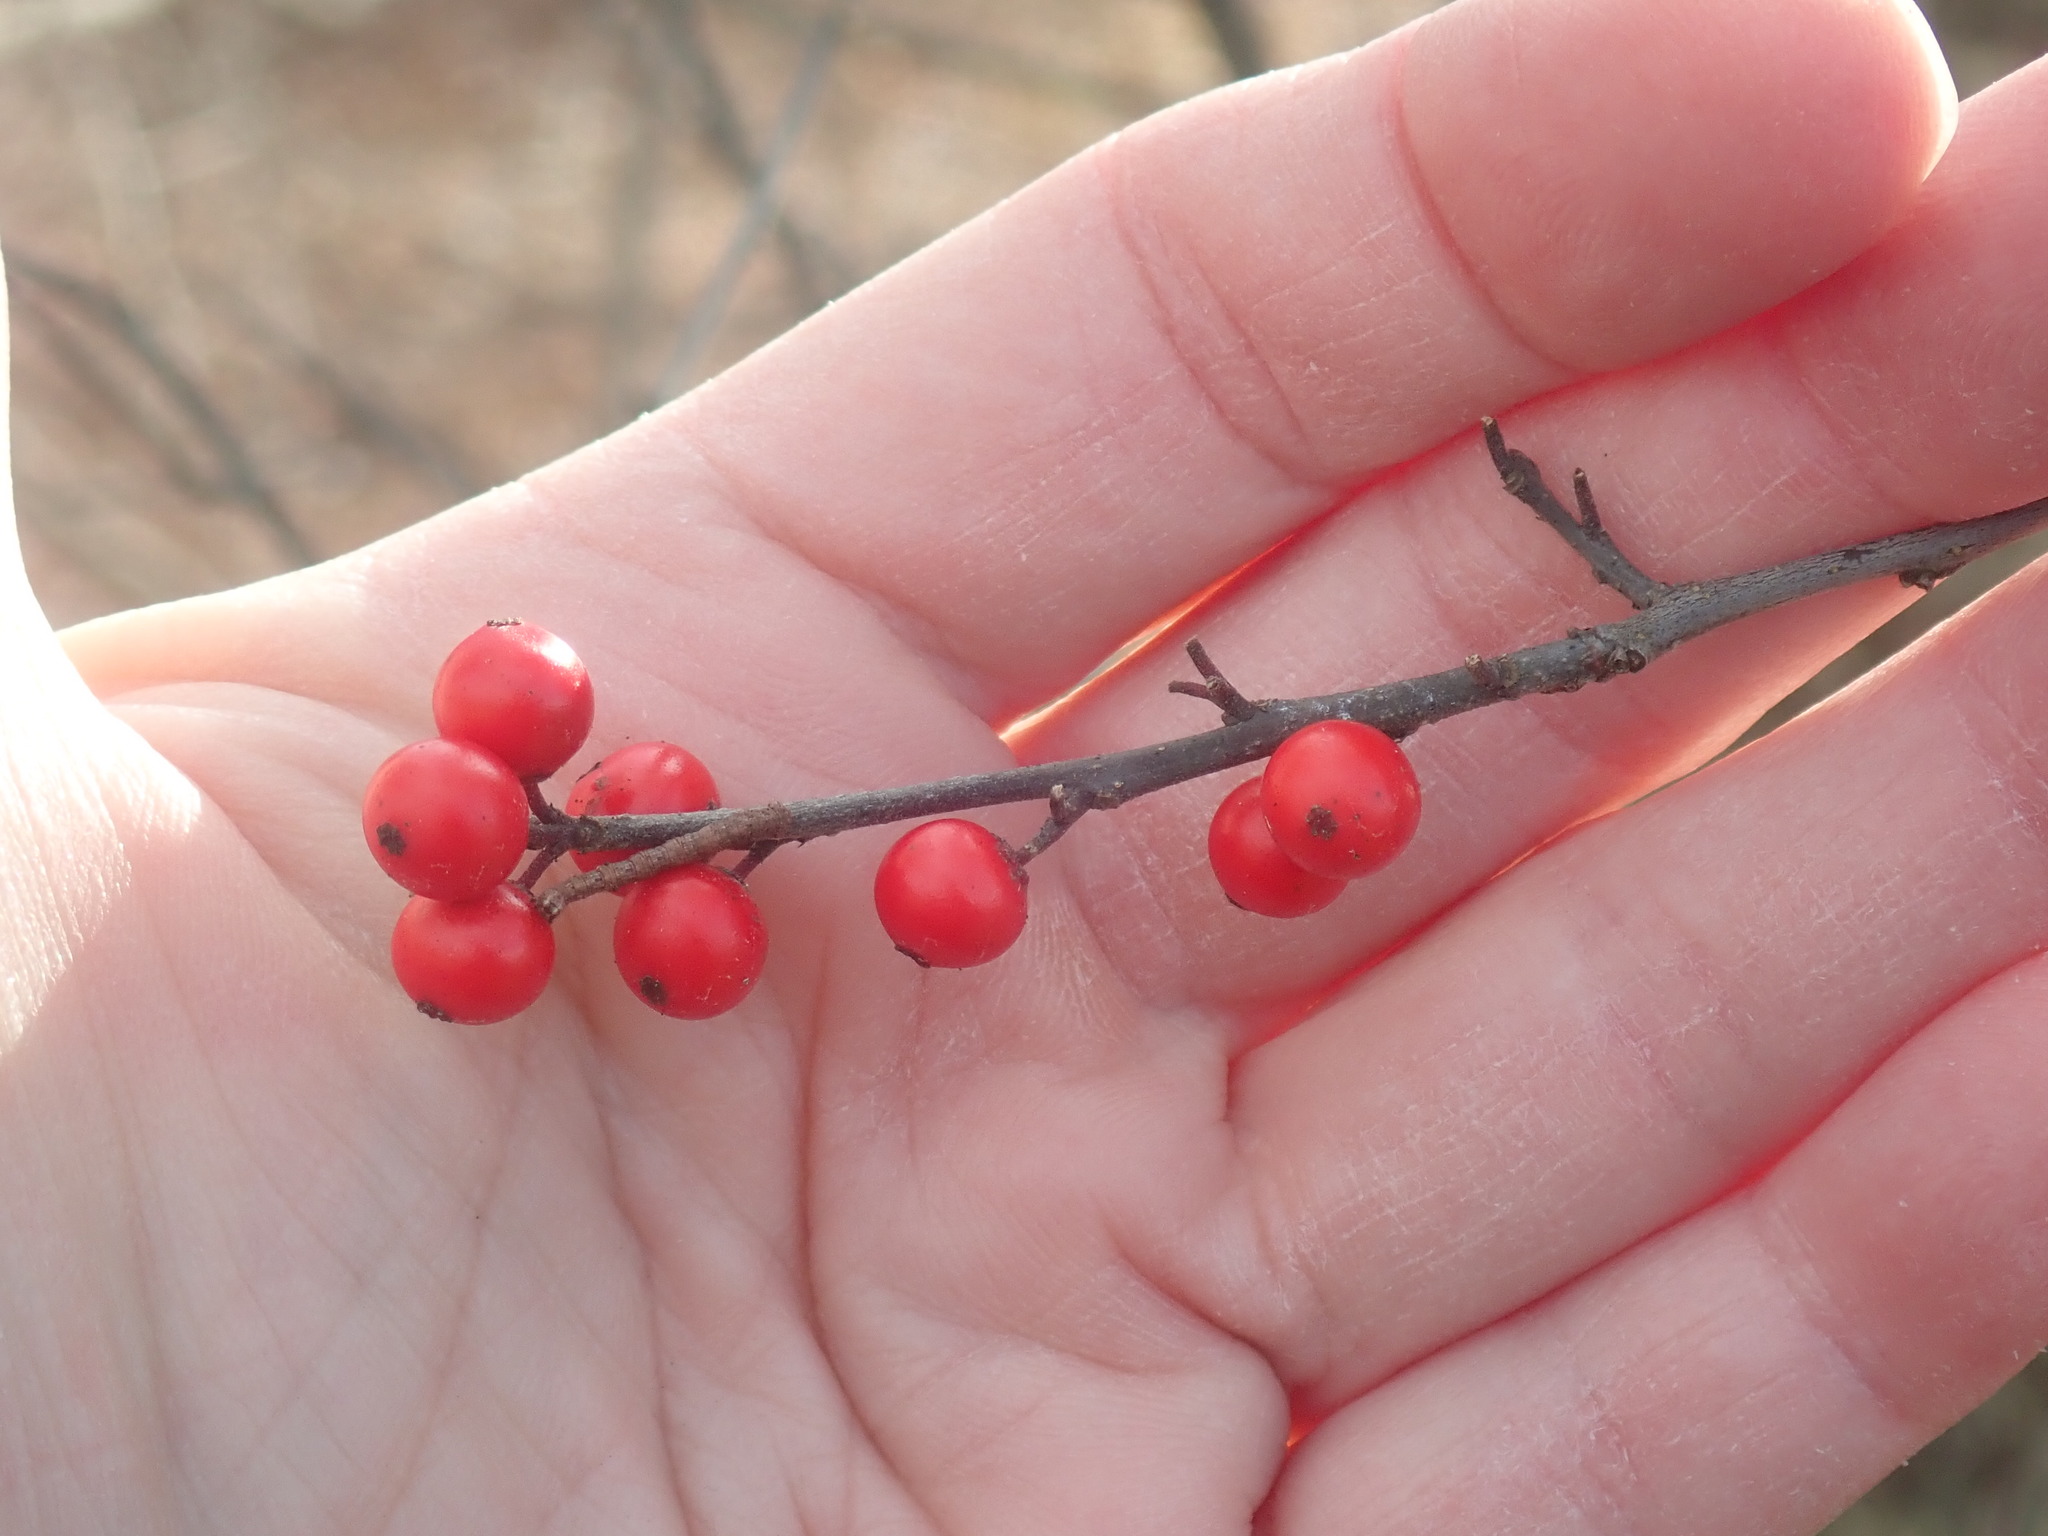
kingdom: Plantae
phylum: Tracheophyta
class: Magnoliopsida
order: Aquifoliales
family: Aquifoliaceae
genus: Ilex
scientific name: Ilex verticillata
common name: Virginia winterberry
